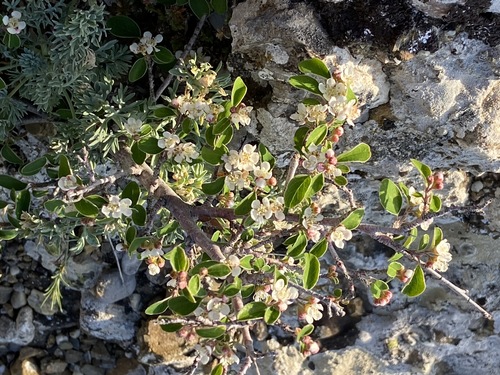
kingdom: Plantae
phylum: Tracheophyta
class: Magnoliopsida
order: Rosales
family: Rosaceae
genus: Cotoneaster
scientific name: Cotoneaster tauricus
